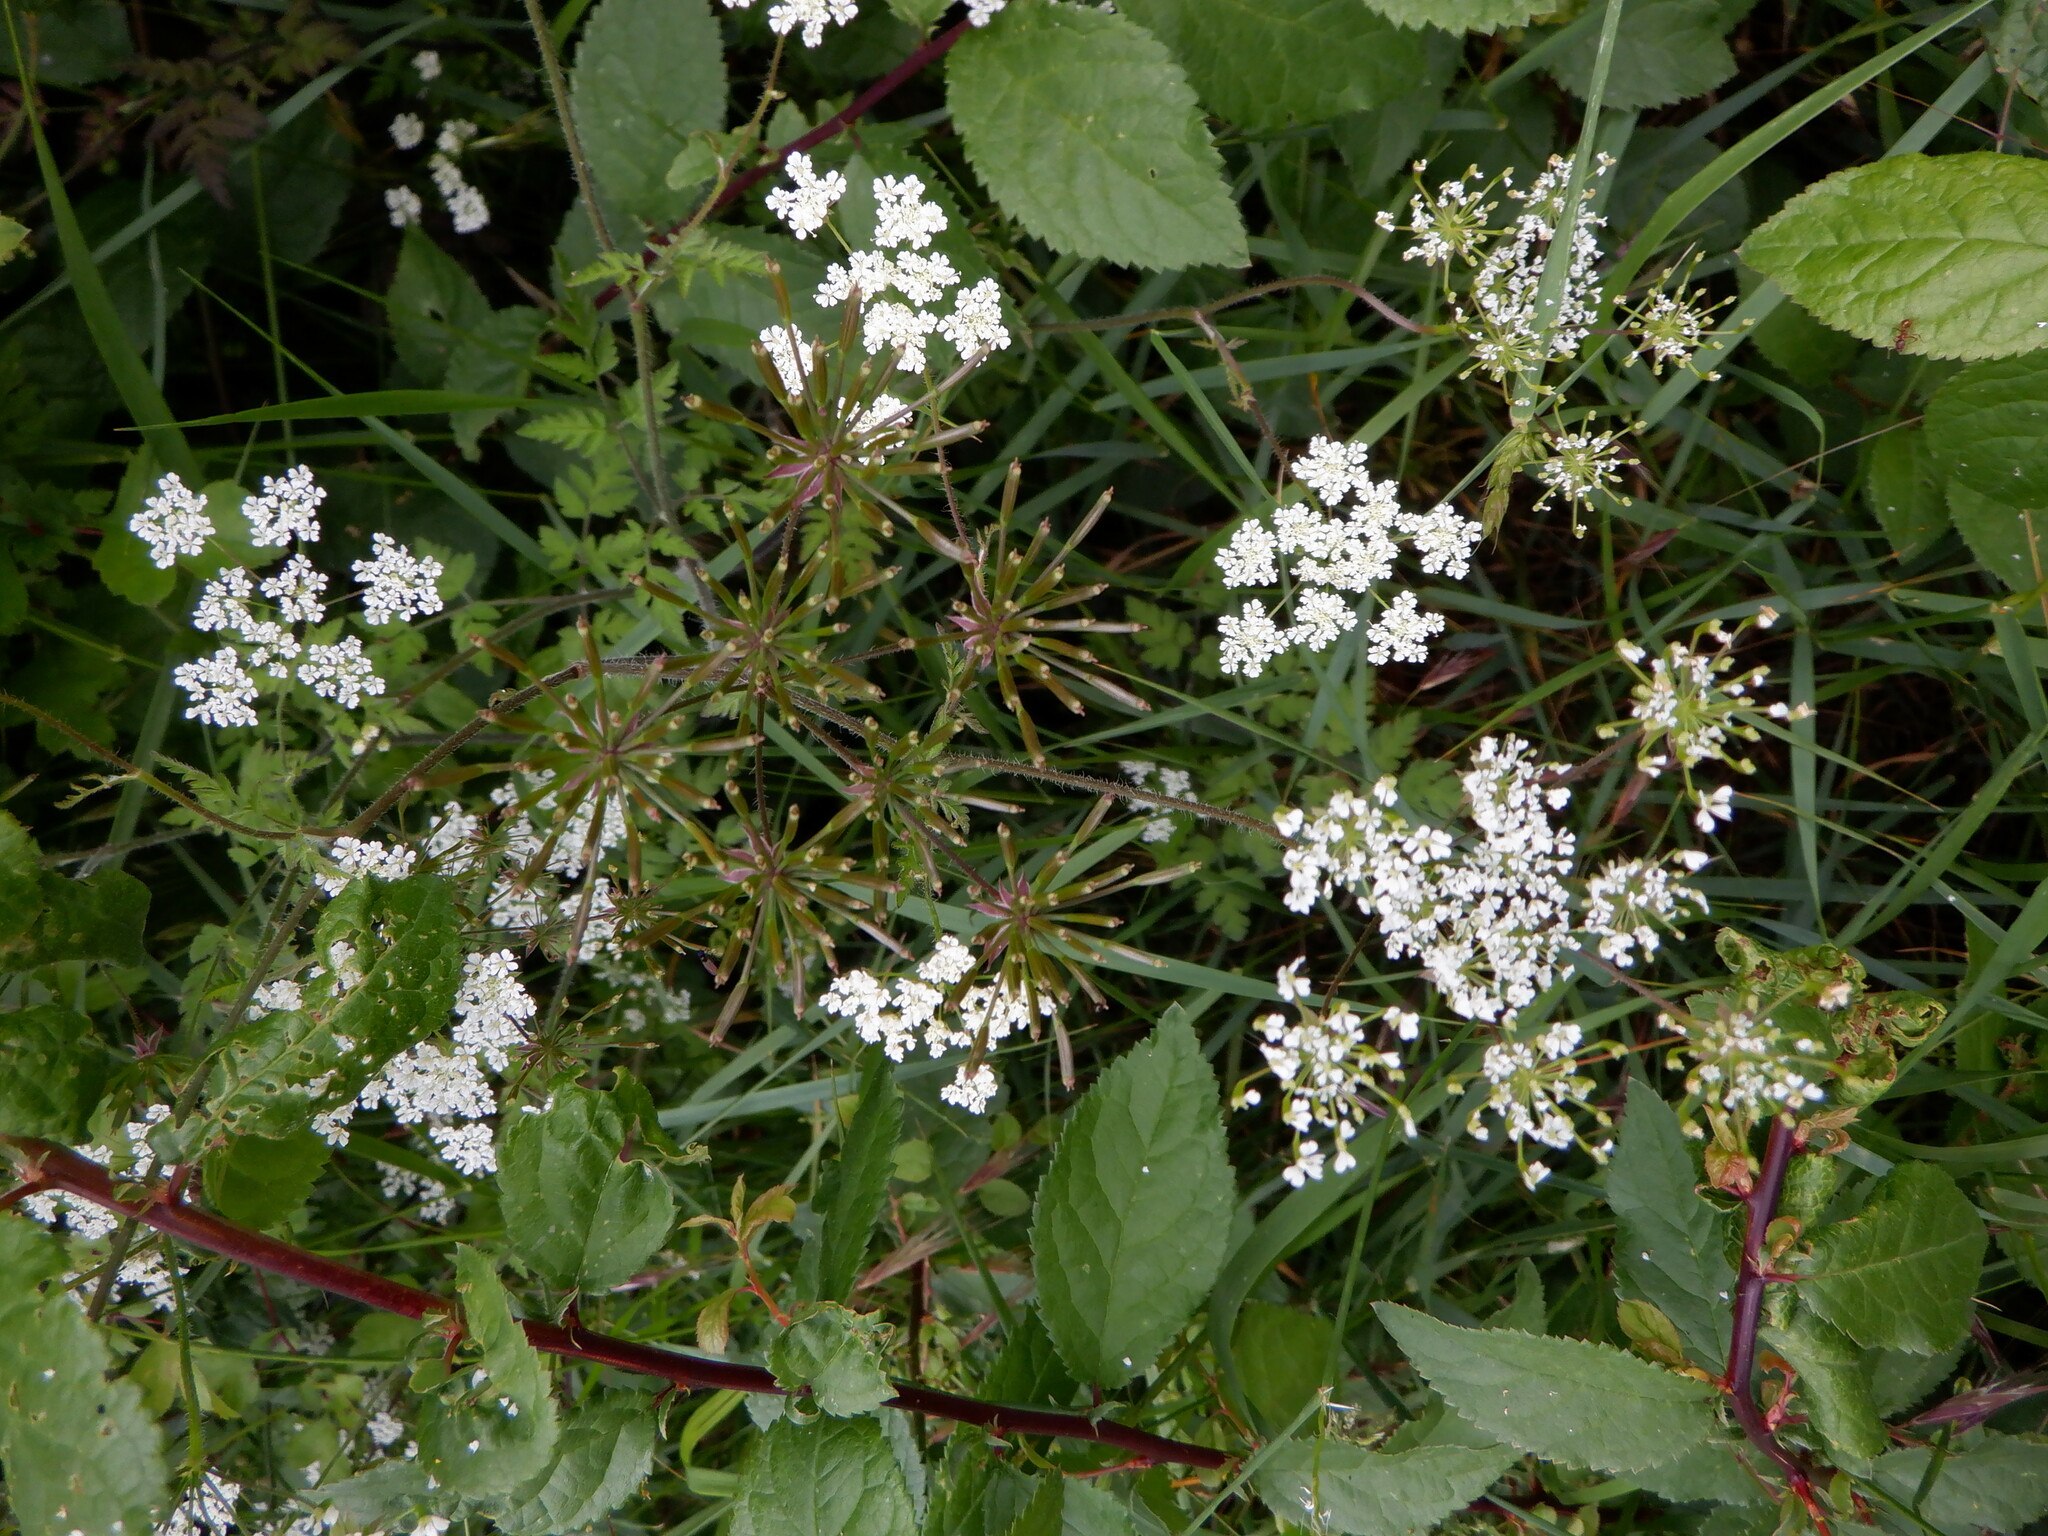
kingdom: Plantae
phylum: Tracheophyta
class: Magnoliopsida
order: Apiales
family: Apiaceae
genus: Chaerophyllum
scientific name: Chaerophyllum temulum
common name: Rough chervil
